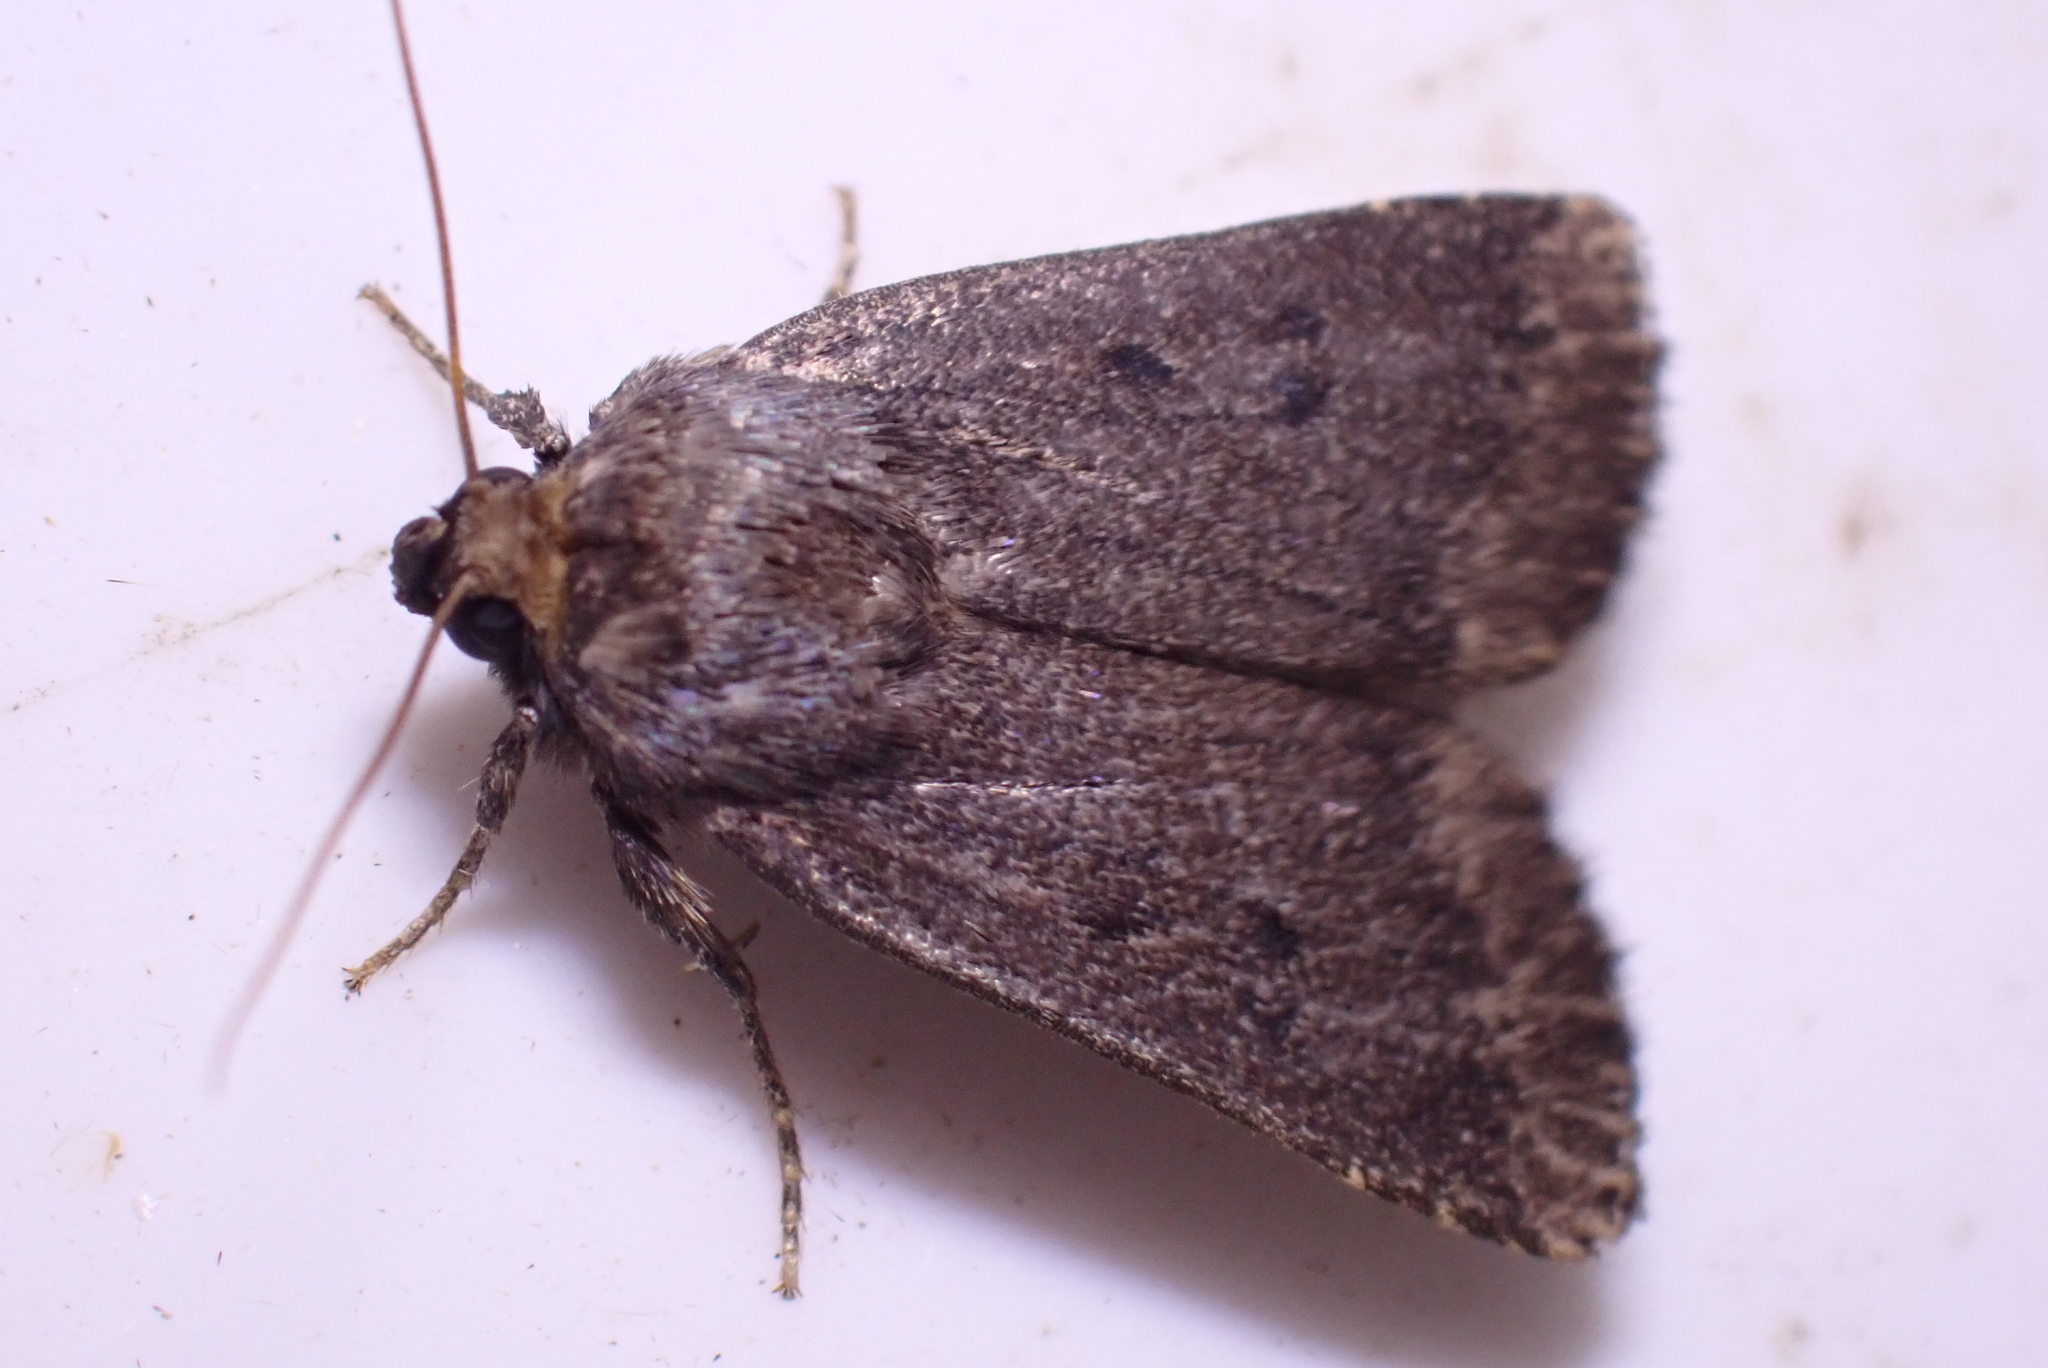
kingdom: Animalia
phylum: Arthropoda
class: Insecta
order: Lepidoptera
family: Noctuidae
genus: Amphipyra
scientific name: Amphipyra tragopoginis
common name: Mouse moth
